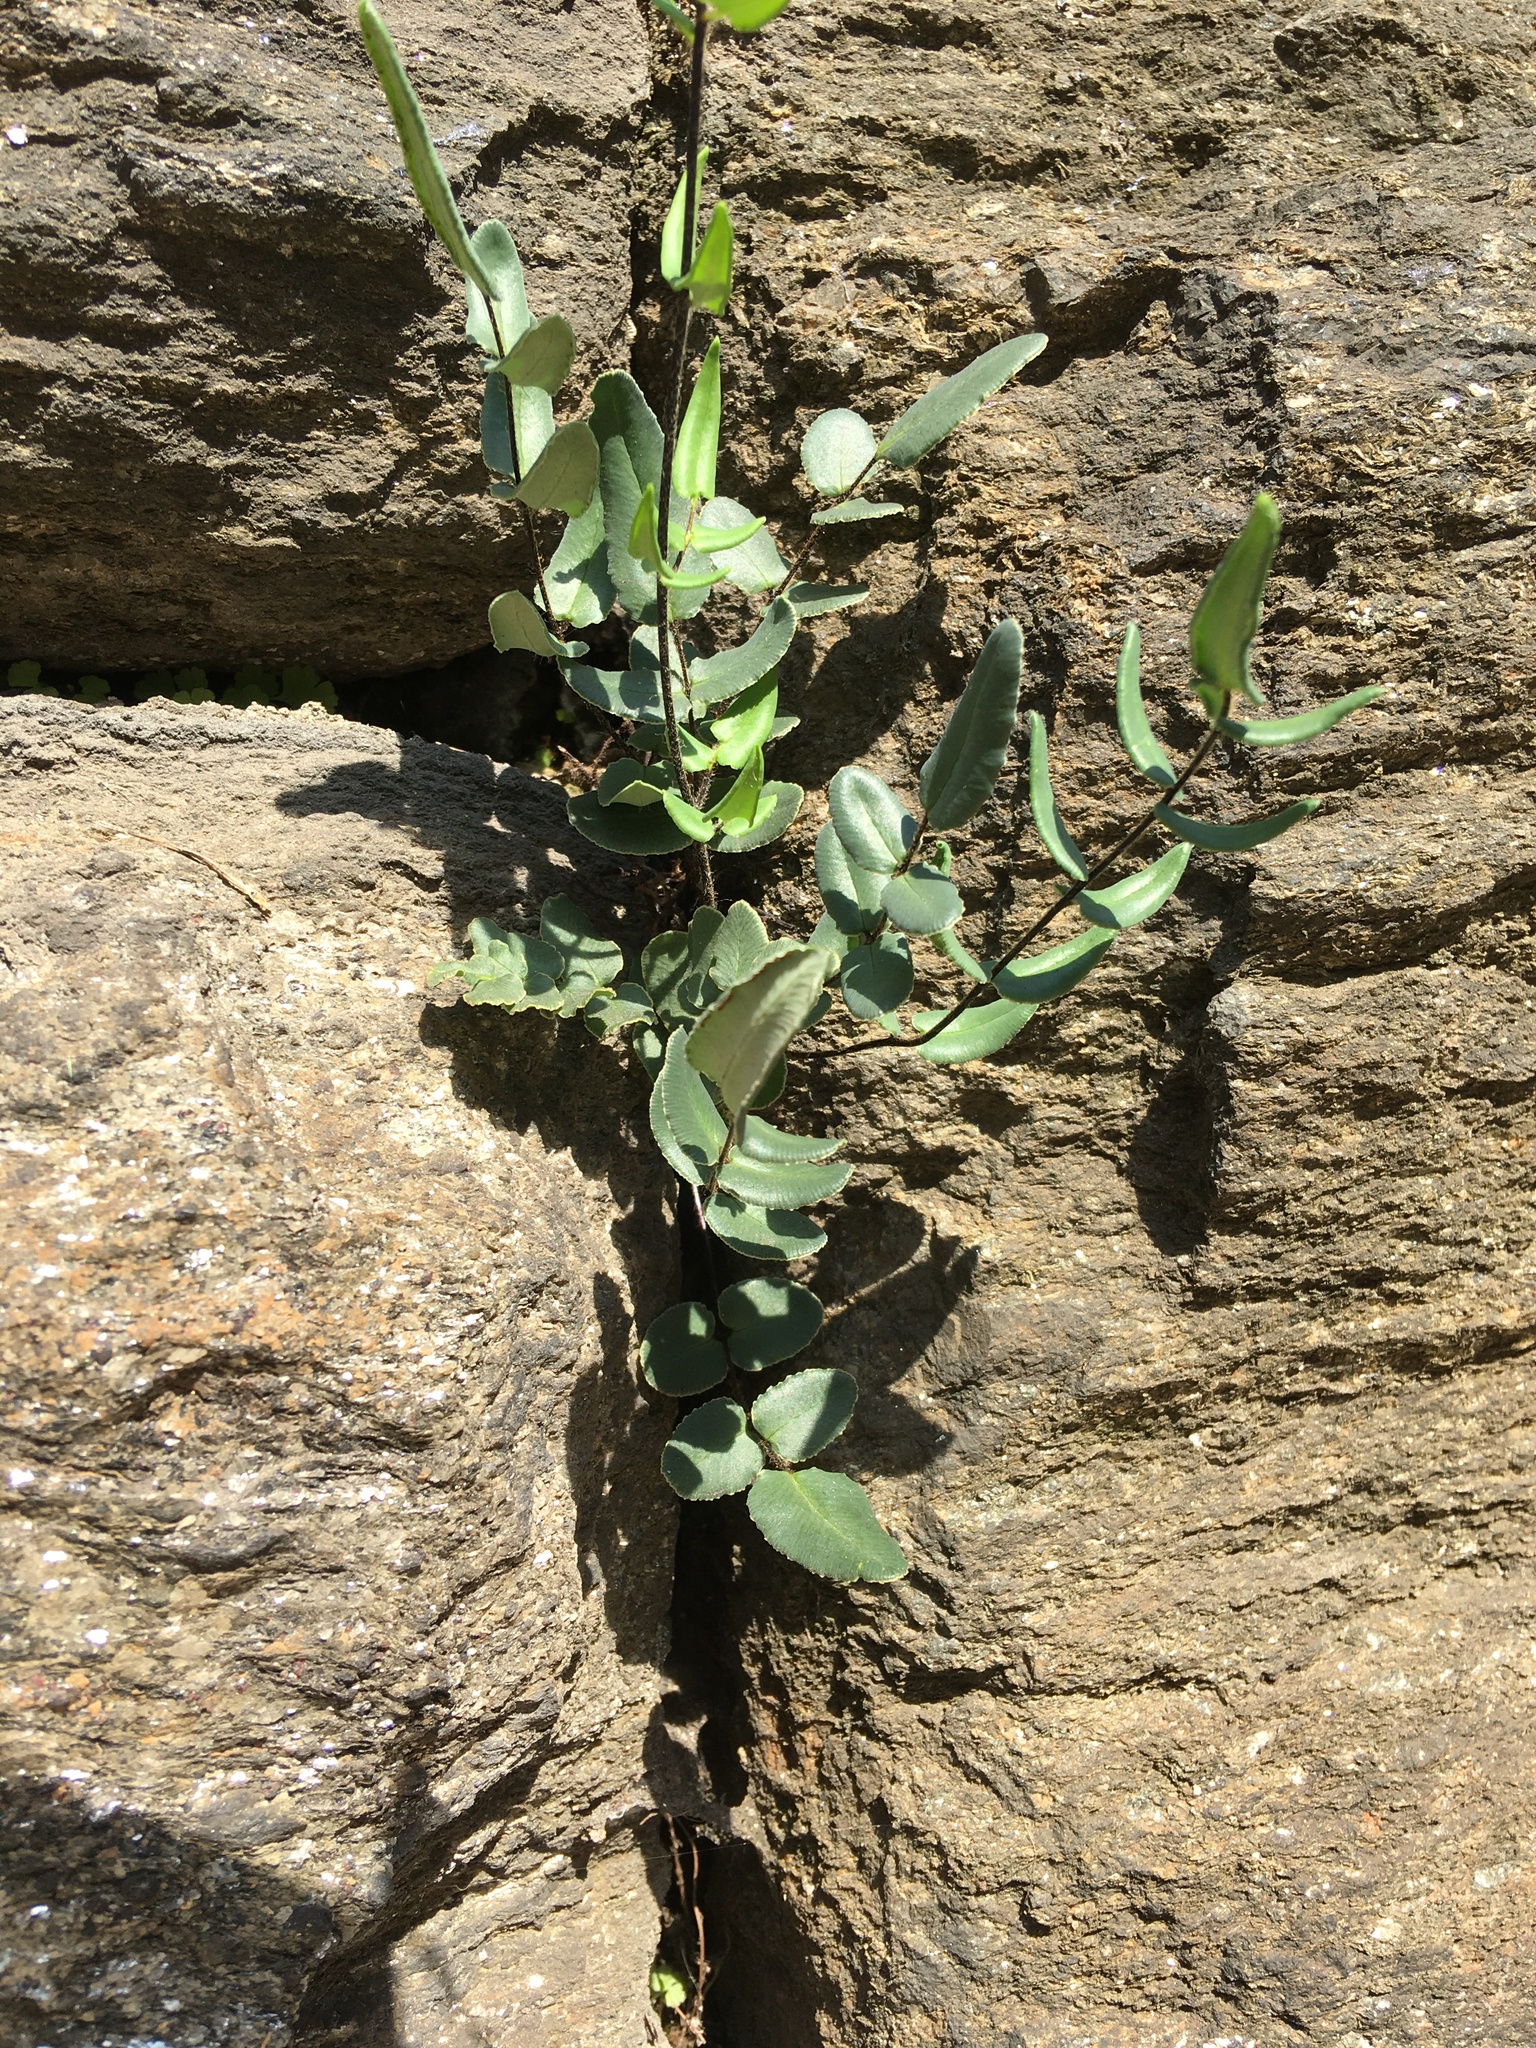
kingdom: Plantae
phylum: Tracheophyta
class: Polypodiopsida
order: Polypodiales
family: Pteridaceae
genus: Pellaea
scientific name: Pellaea atropurpurea
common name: Hairy cliffbrake
